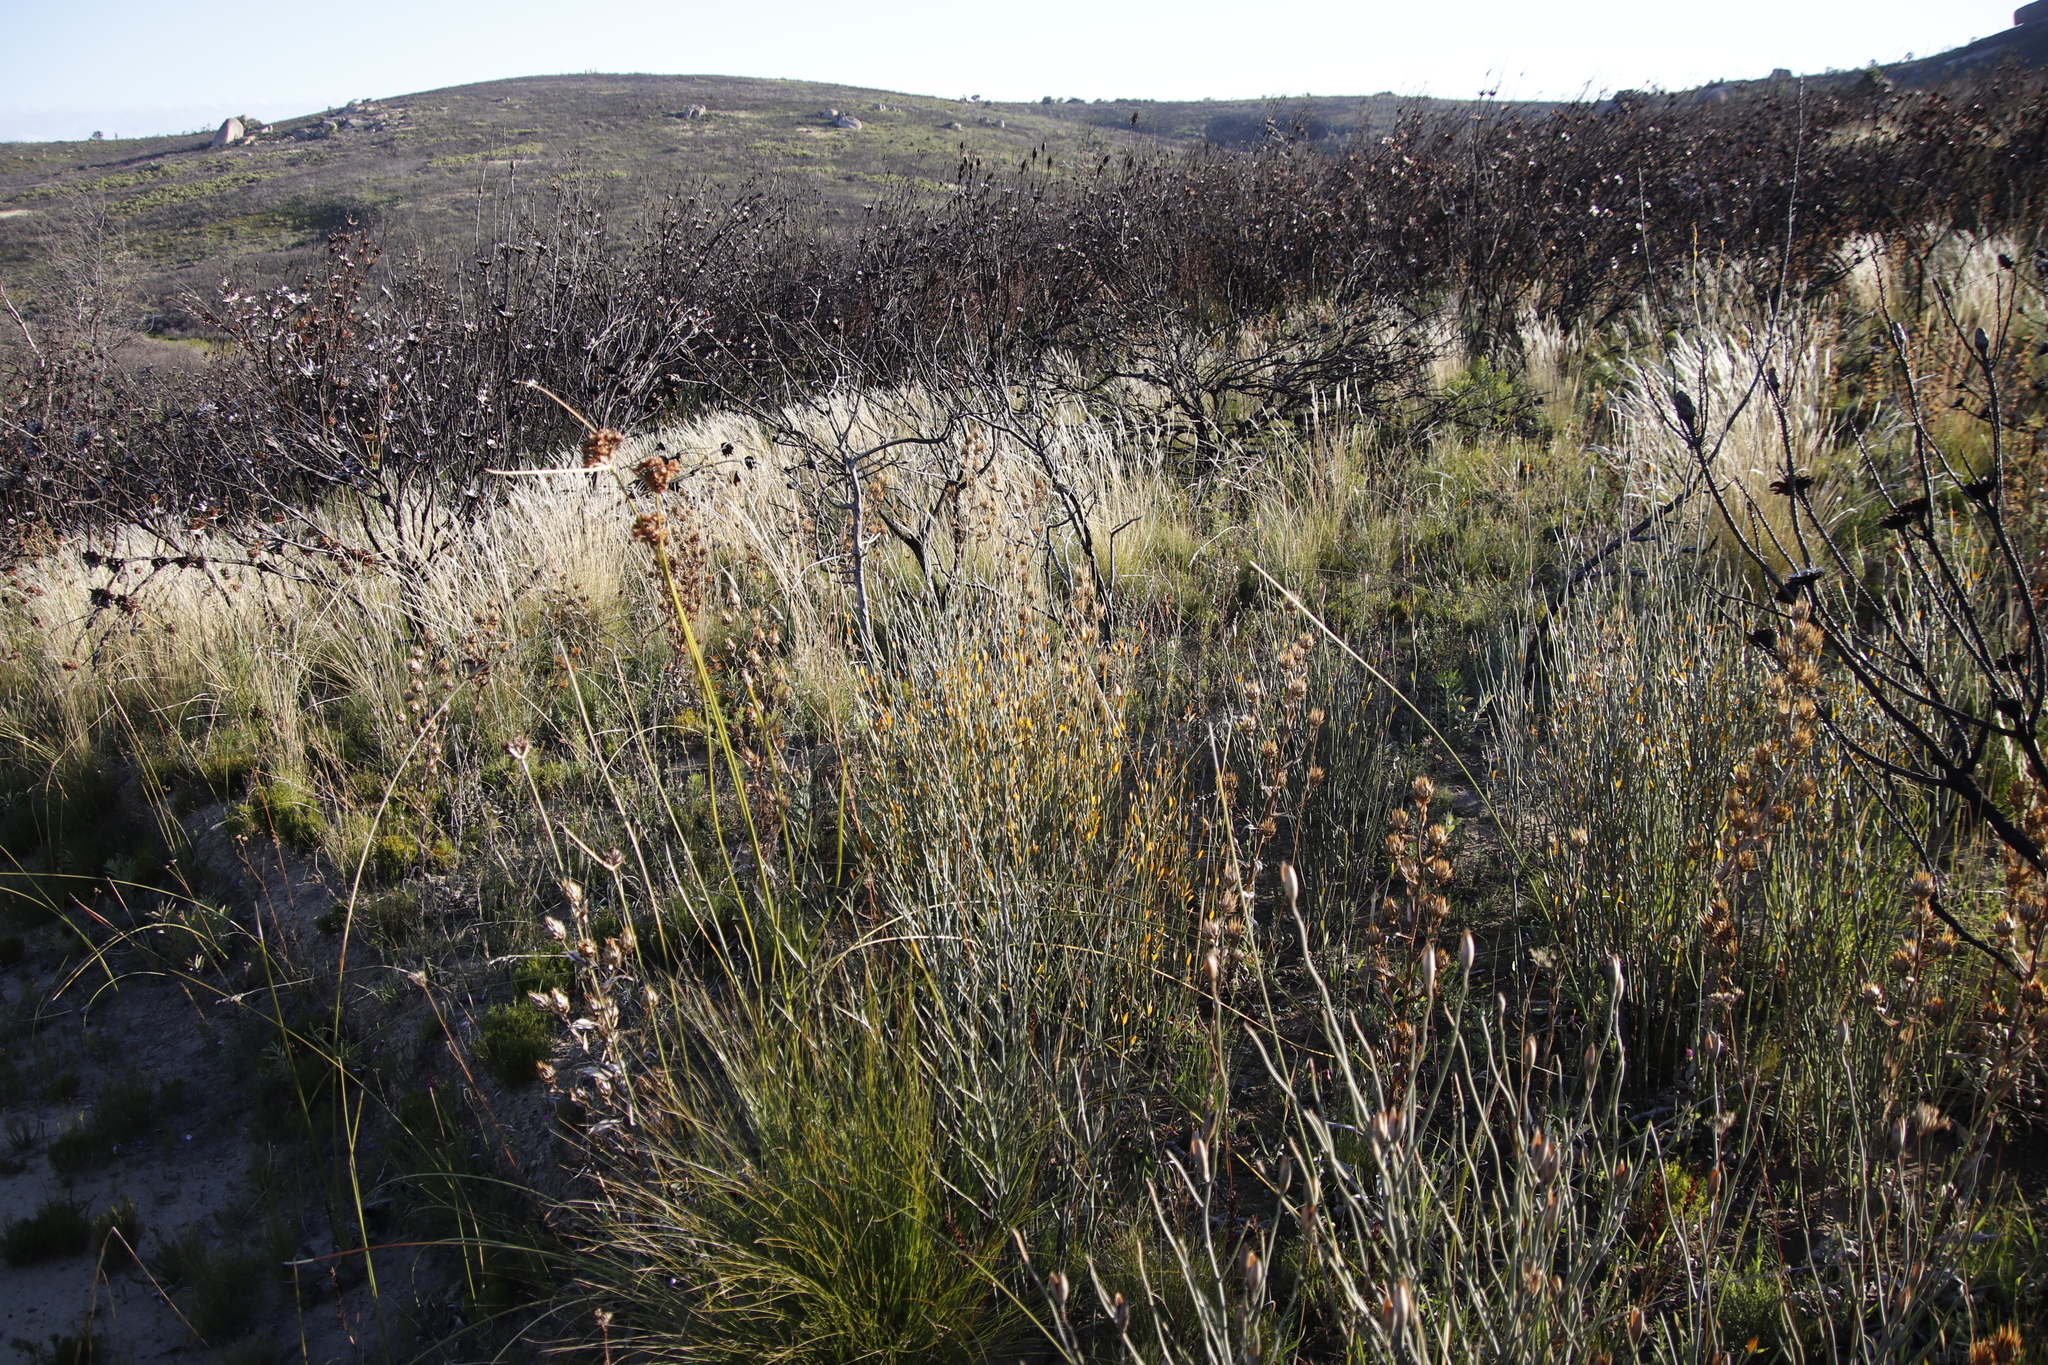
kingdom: Plantae
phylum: Tracheophyta
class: Magnoliopsida
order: Solanales
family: Montiniaceae
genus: Montinia
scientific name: Montinia caryophyllacea
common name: Wild clove-bush
